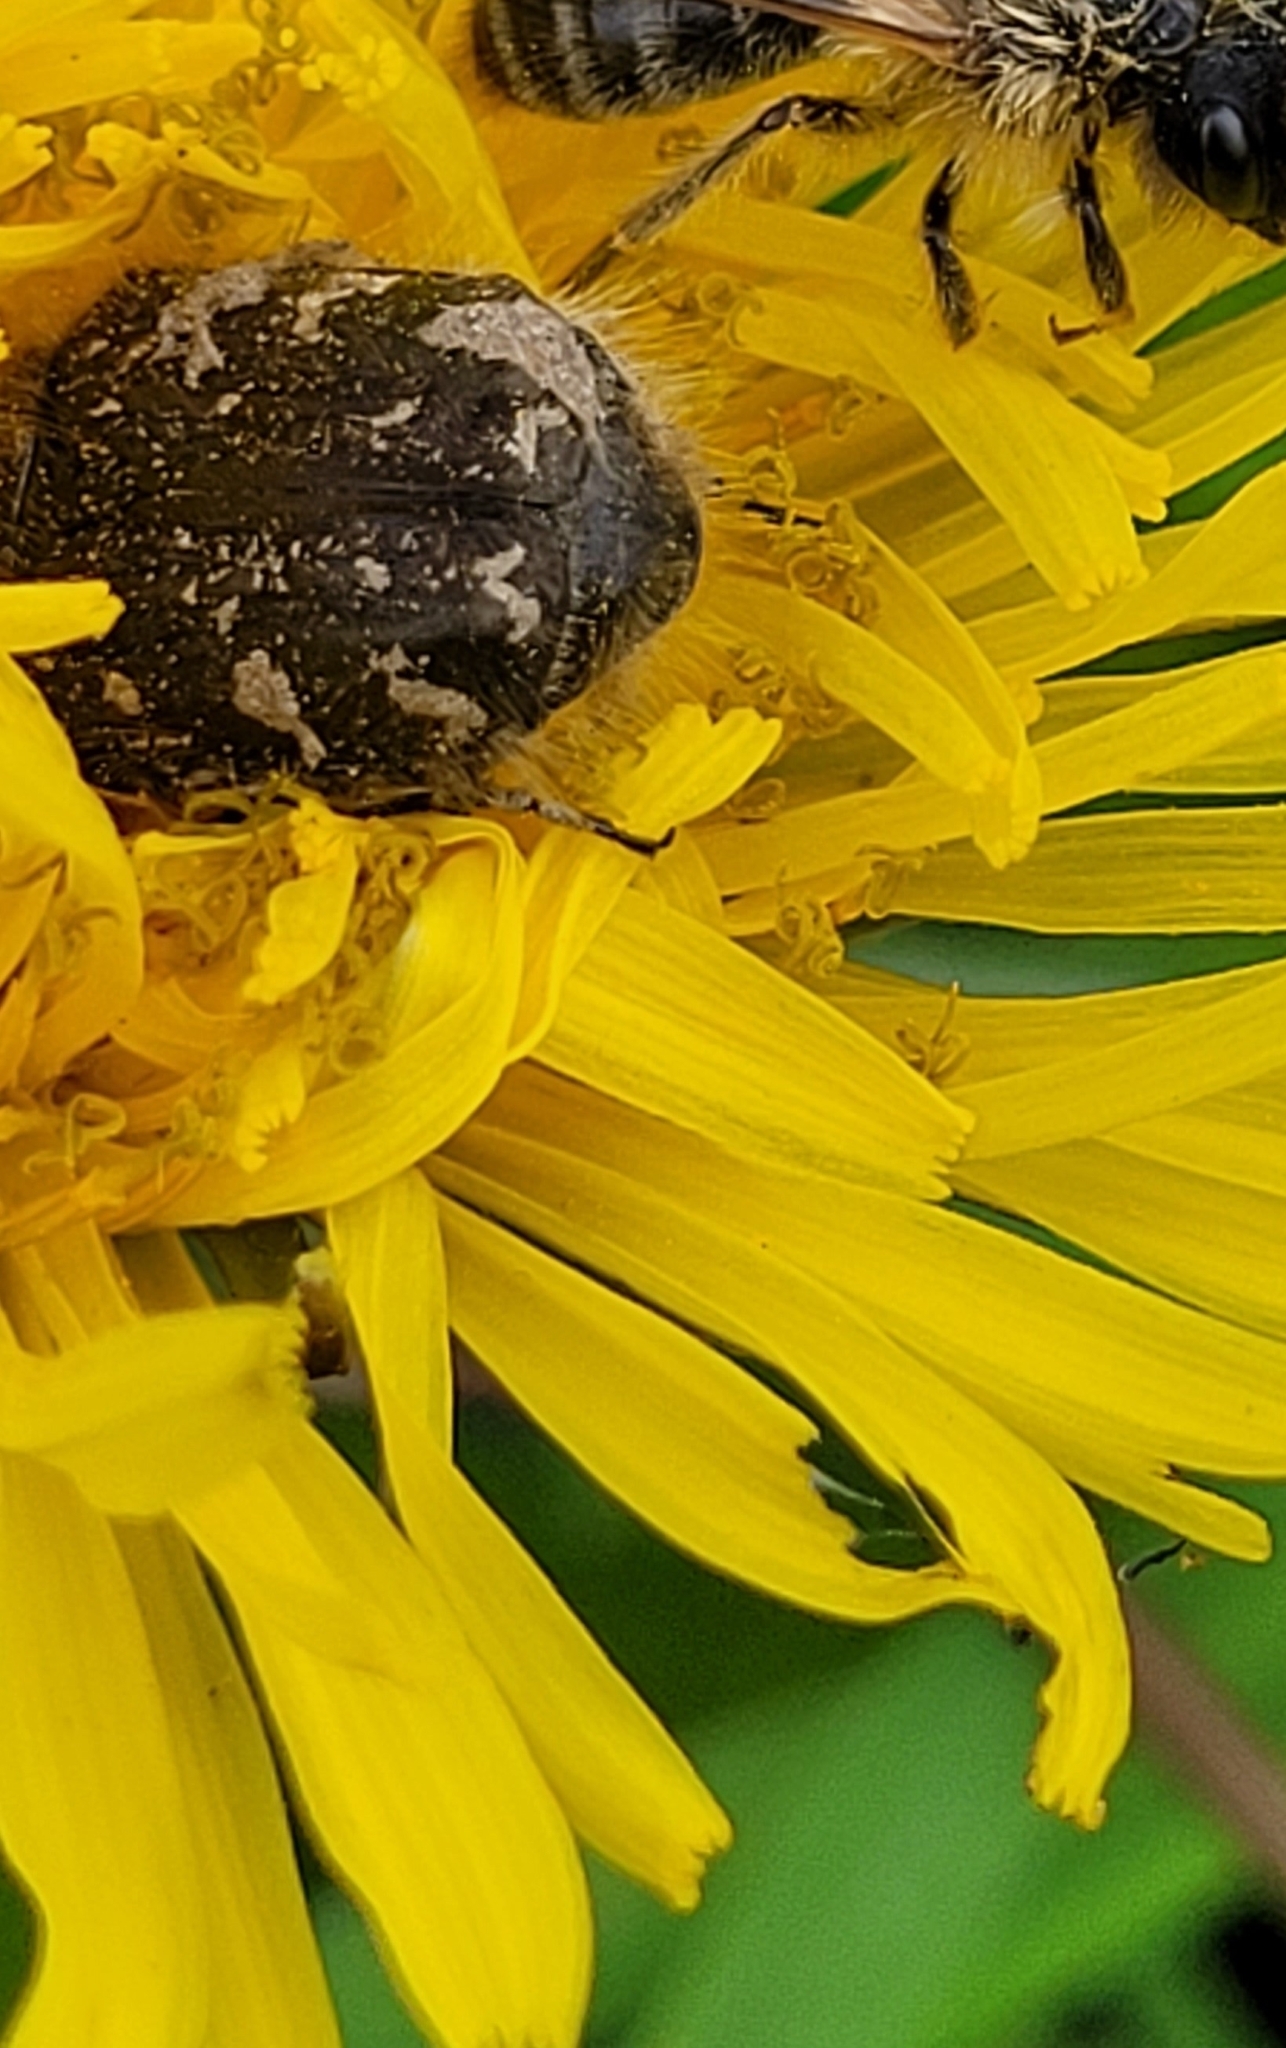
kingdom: Animalia
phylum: Arthropoda
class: Insecta
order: Coleoptera
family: Scarabaeidae
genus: Tropinota
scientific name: Tropinota hirta
